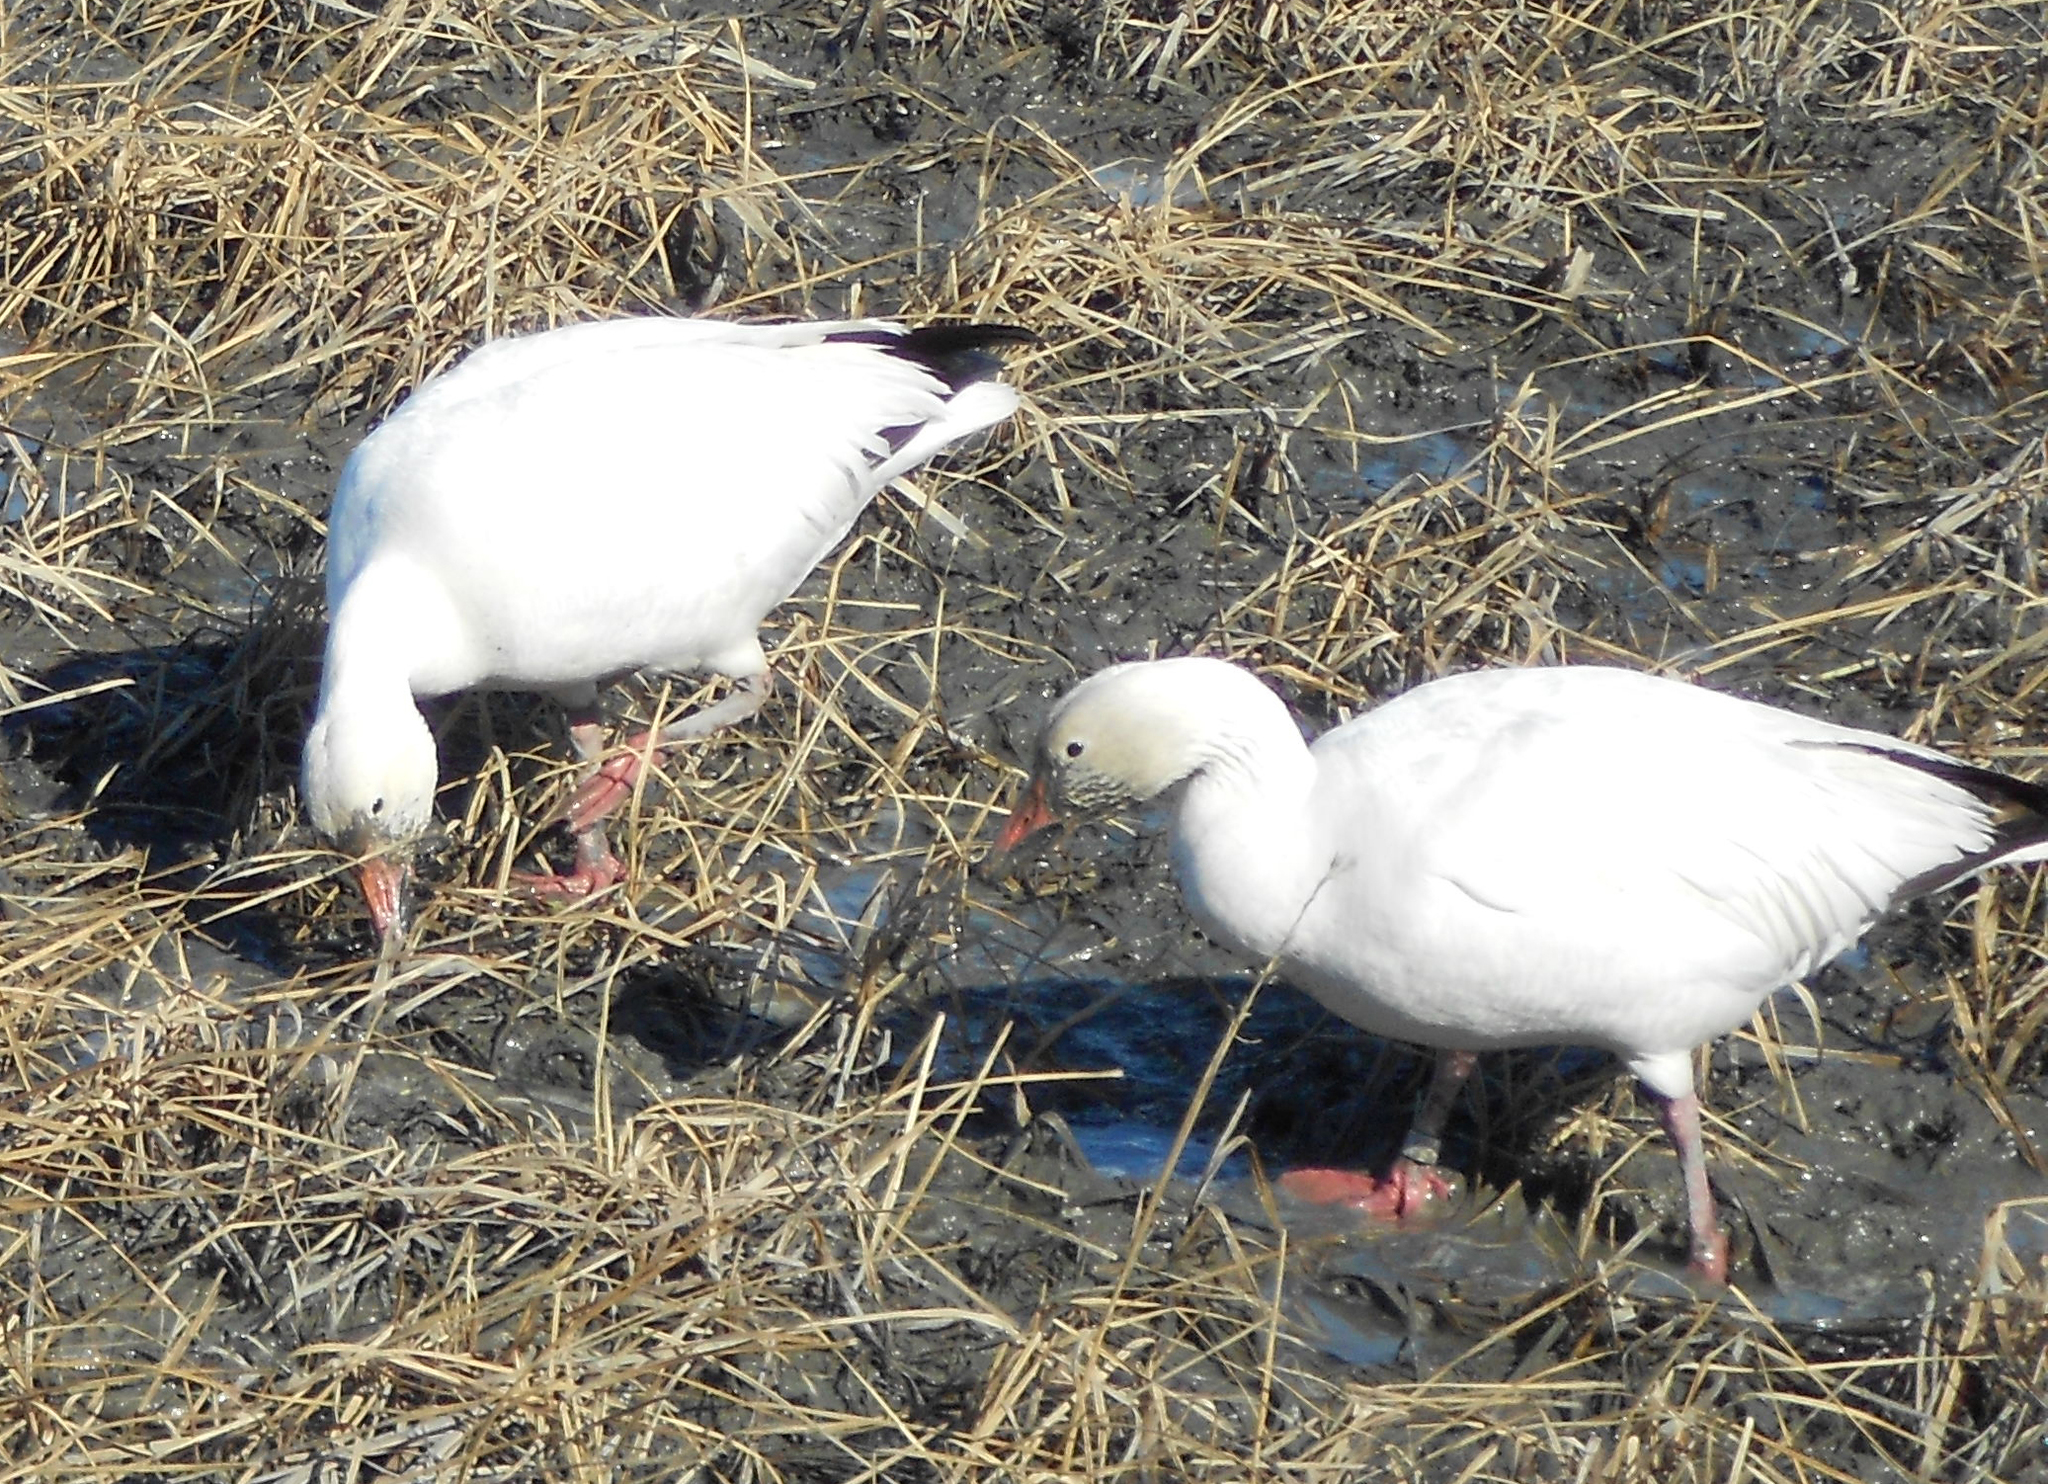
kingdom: Animalia
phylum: Chordata
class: Aves
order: Anseriformes
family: Anatidae
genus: Anser
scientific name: Anser caerulescens
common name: Snow goose
